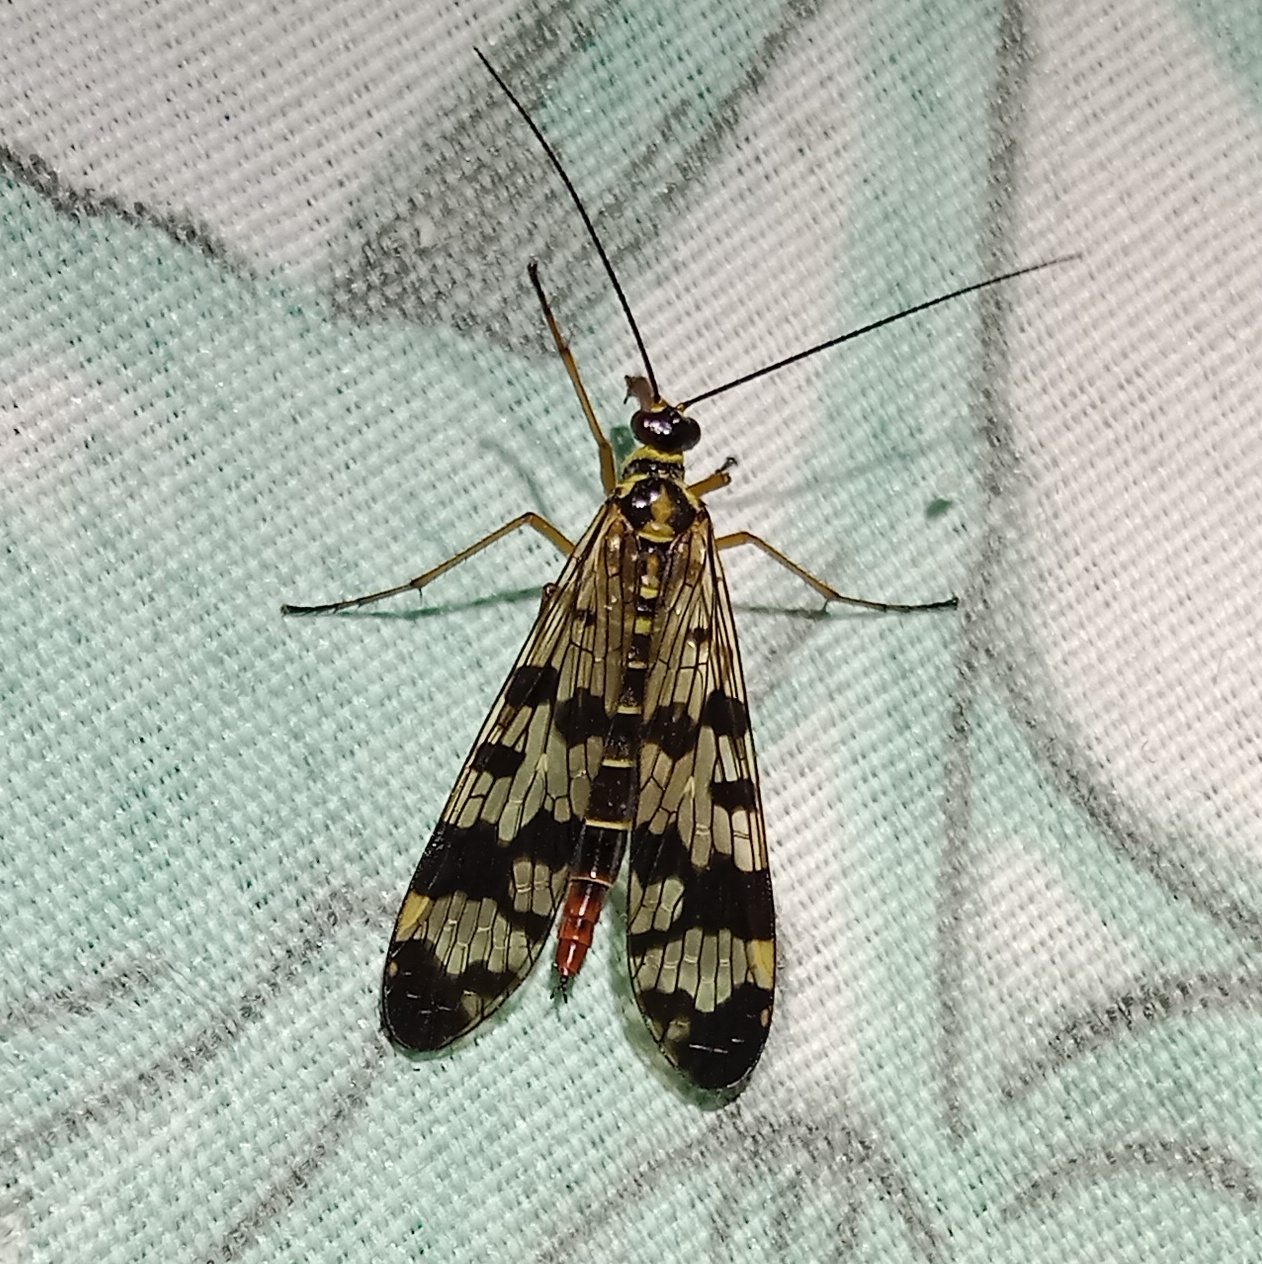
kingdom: Animalia
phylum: Arthropoda
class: Insecta
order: Mecoptera
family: Panorpidae
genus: Panorpa
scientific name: Panorpa communis
